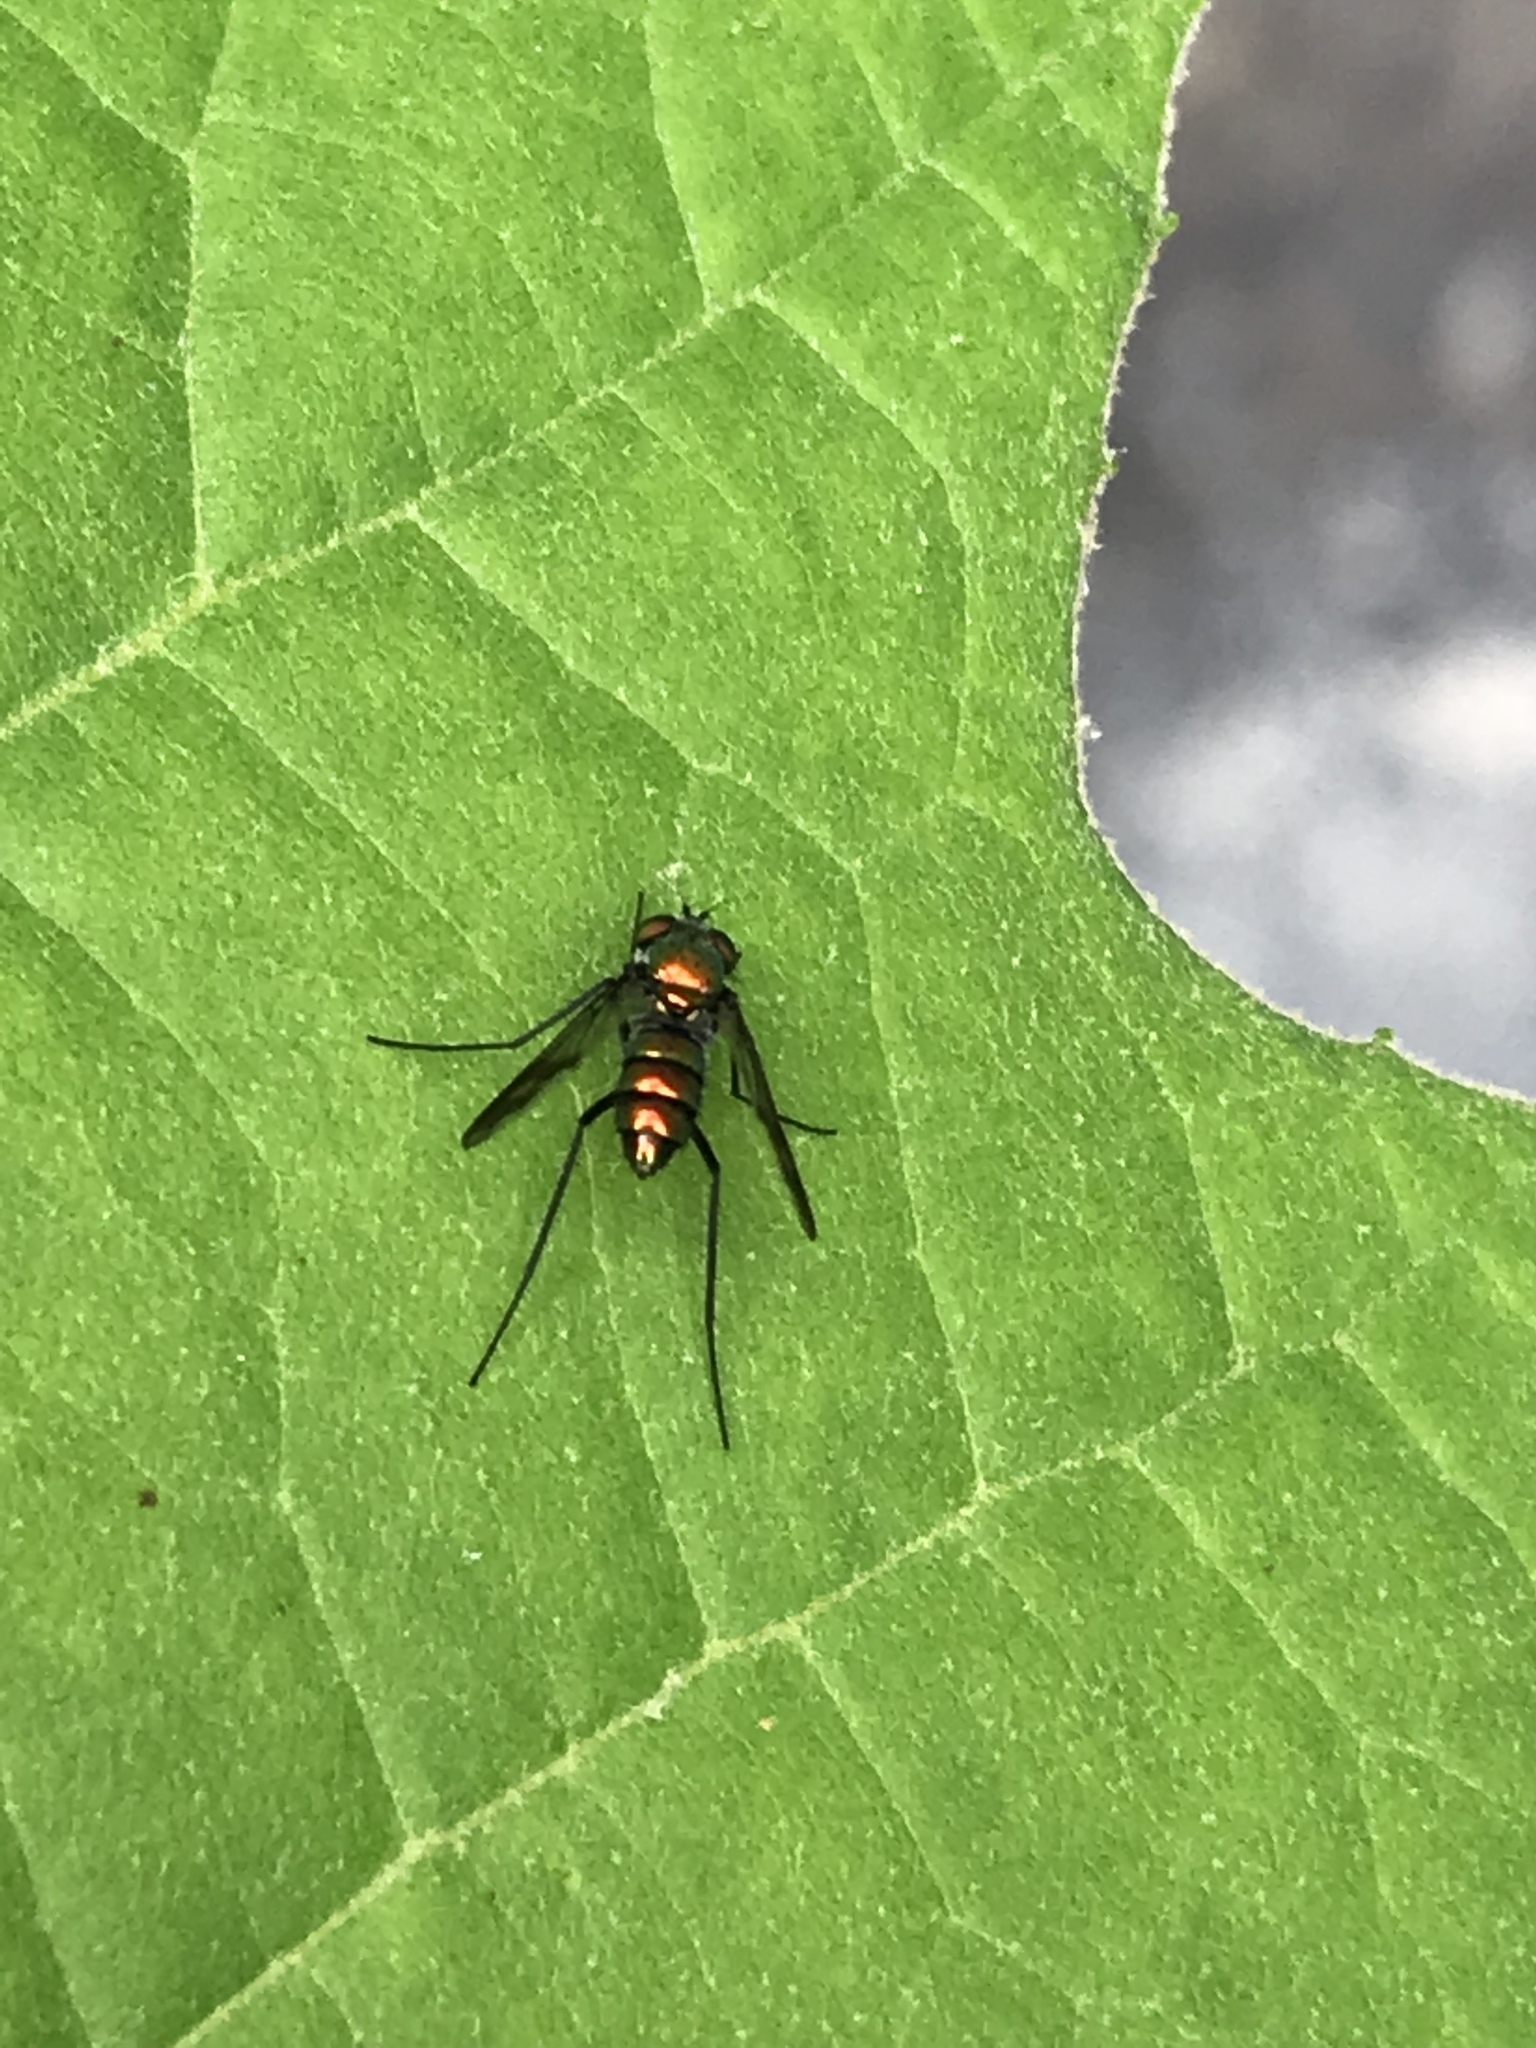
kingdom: Animalia
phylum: Arthropoda
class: Insecta
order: Diptera
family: Dolichopodidae
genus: Condylostylus
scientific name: Condylostylus patibulatus
